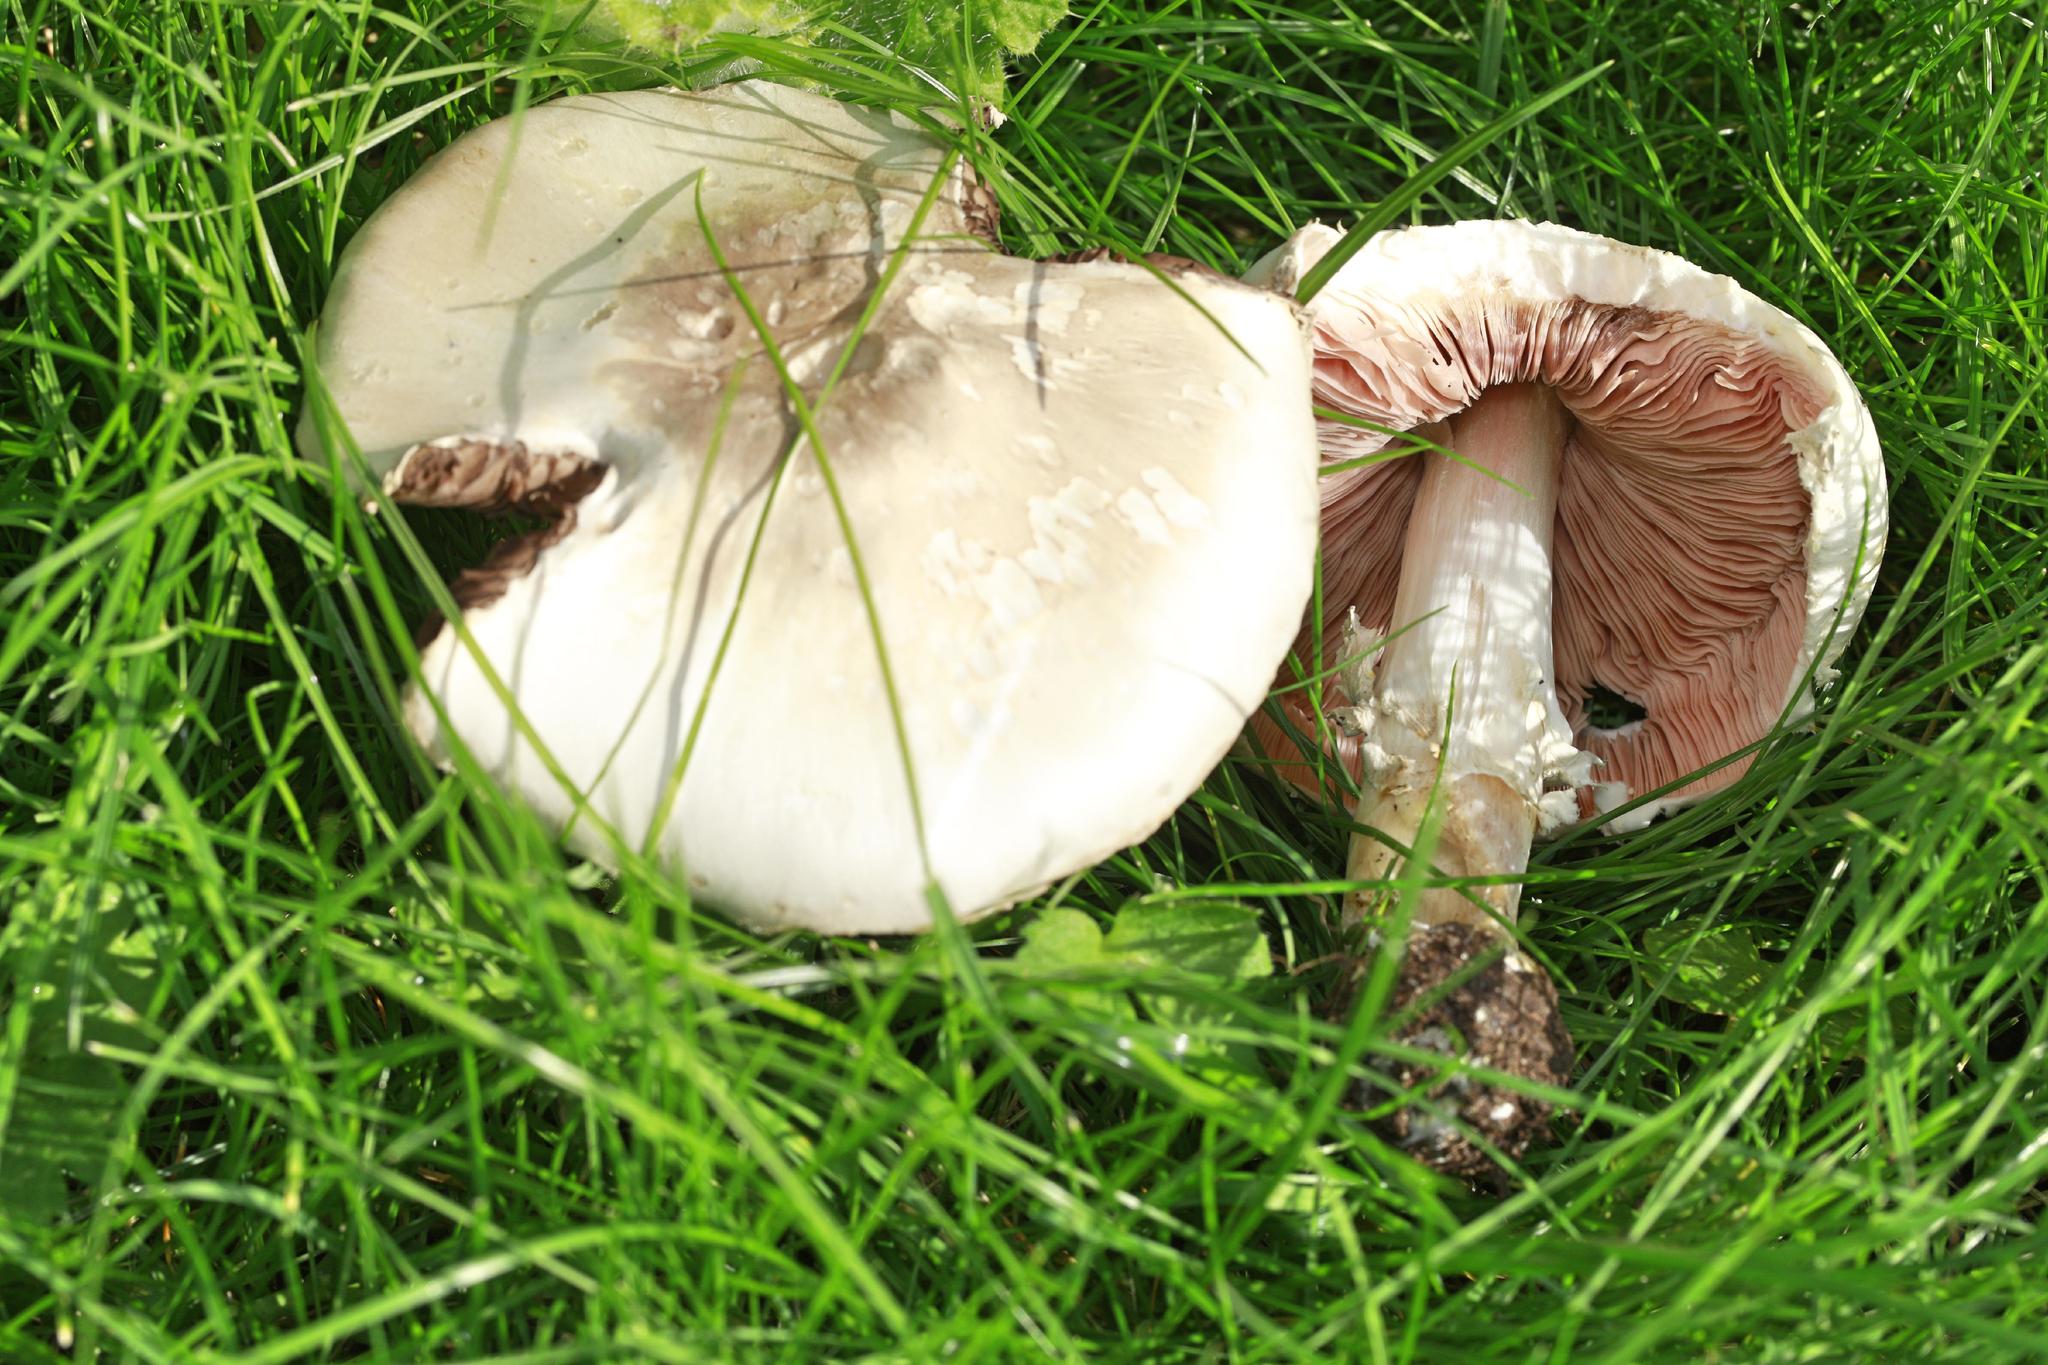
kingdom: Fungi
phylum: Basidiomycota
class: Agaricomycetes
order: Agaricales
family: Agaricaceae
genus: Agaricus
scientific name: Agaricus campestris
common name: Field mushroom
